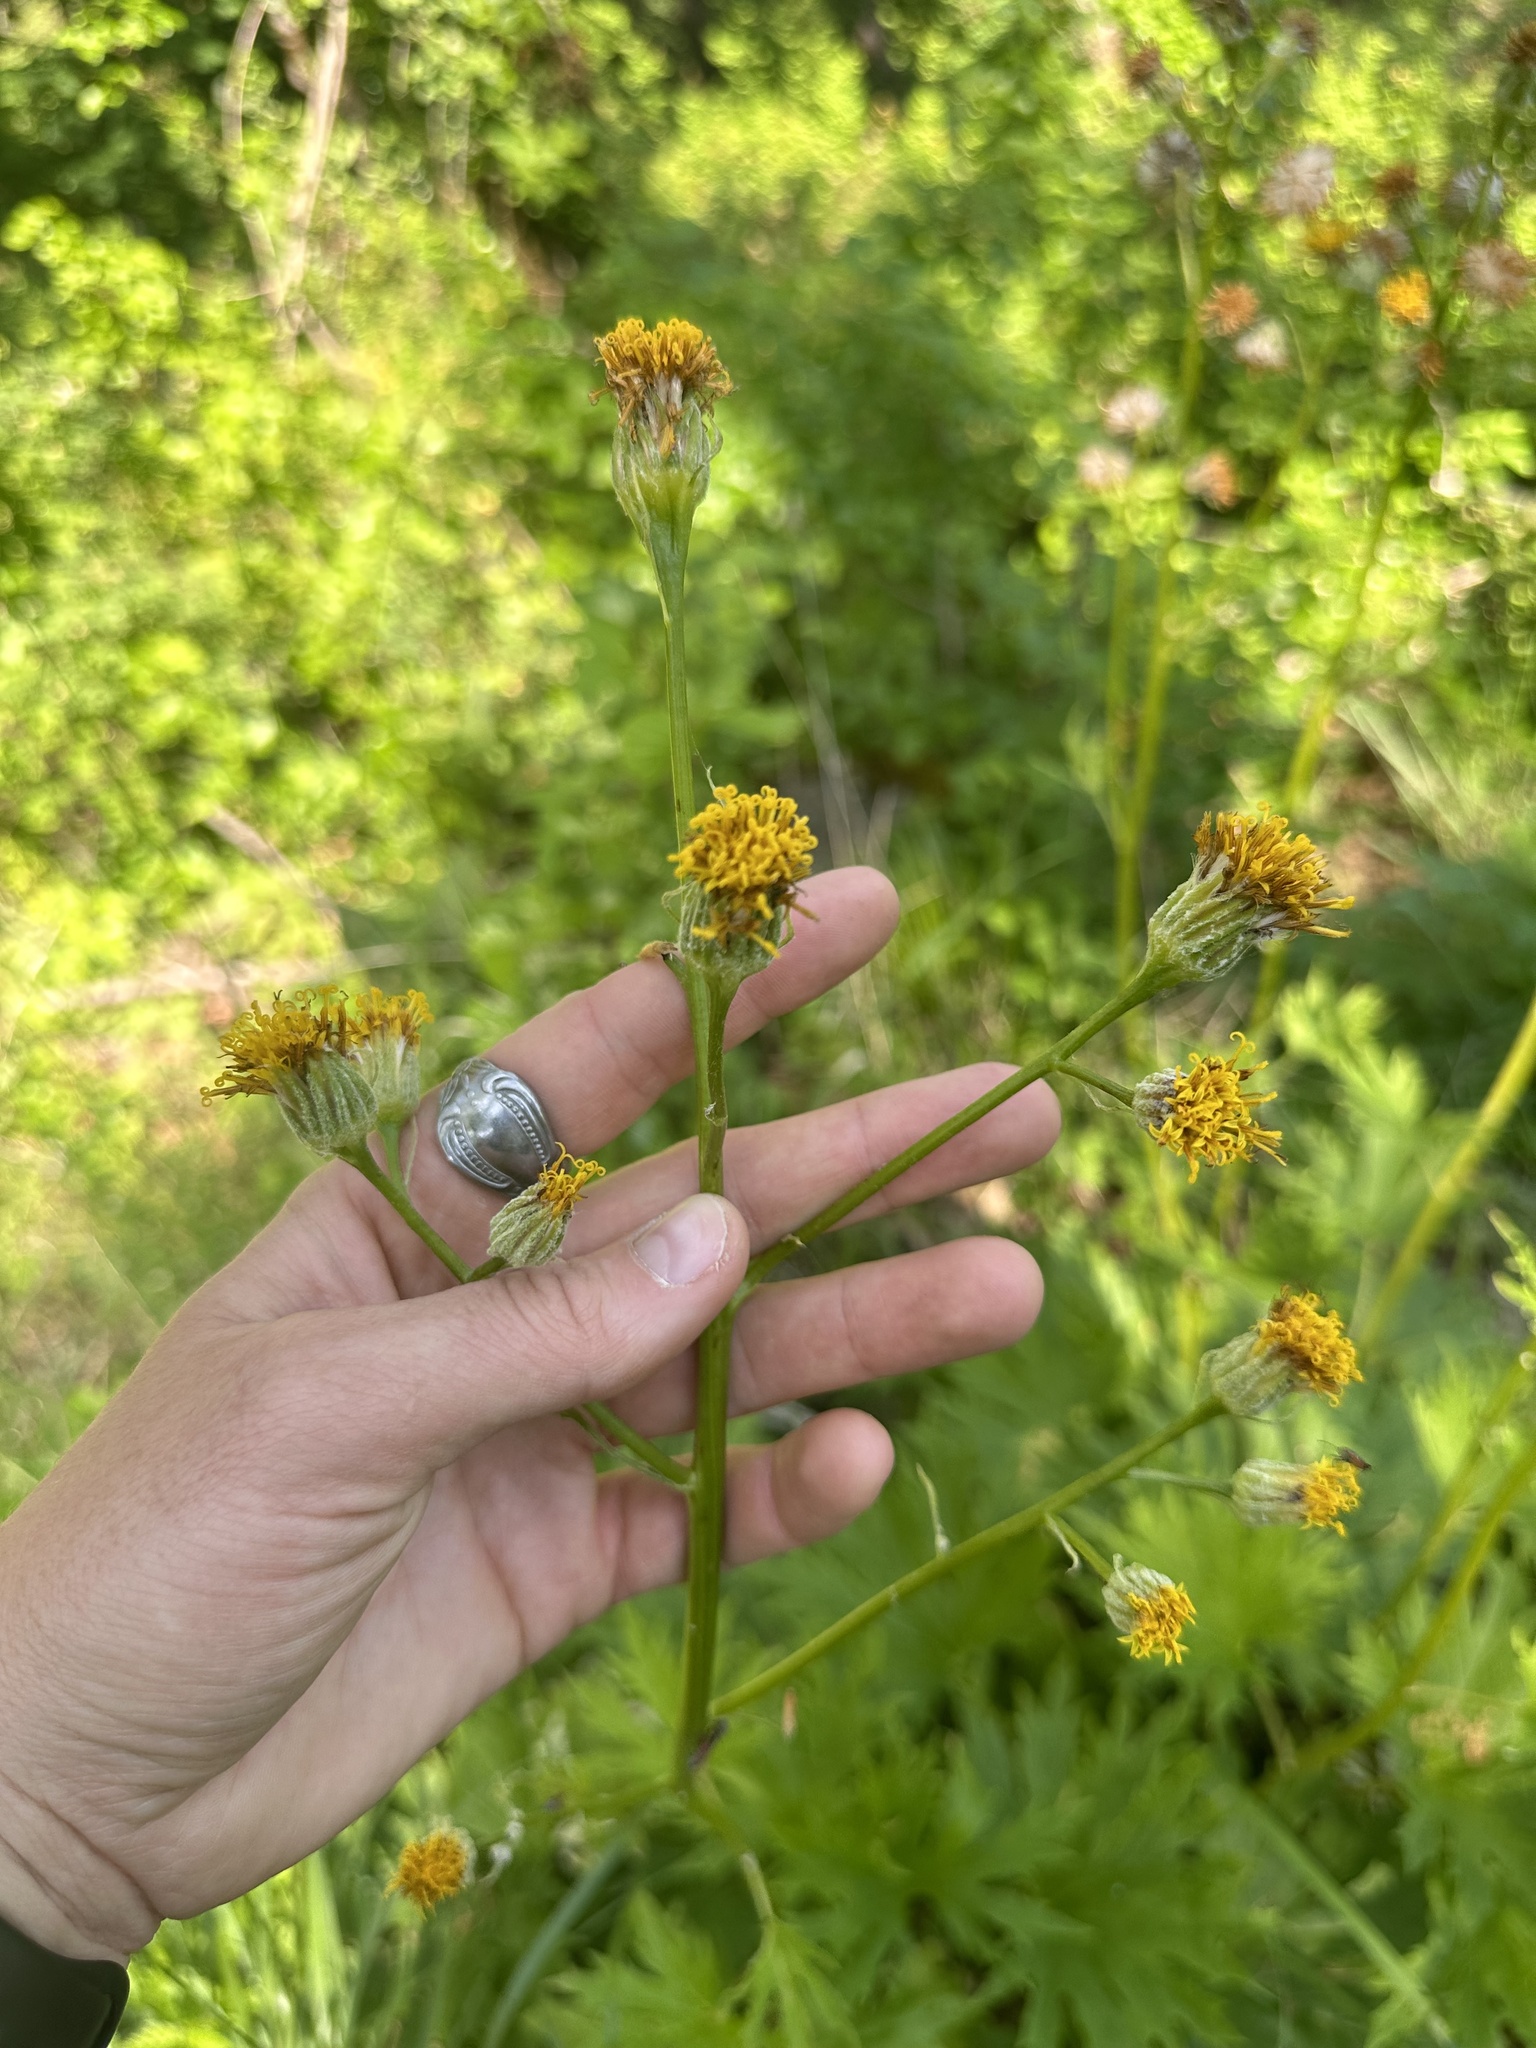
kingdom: Plantae
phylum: Tracheophyta
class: Magnoliopsida
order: Asterales
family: Asteraceae
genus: Cacaliopsis
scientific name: Cacaliopsis nardosmia
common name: Silvercrown
